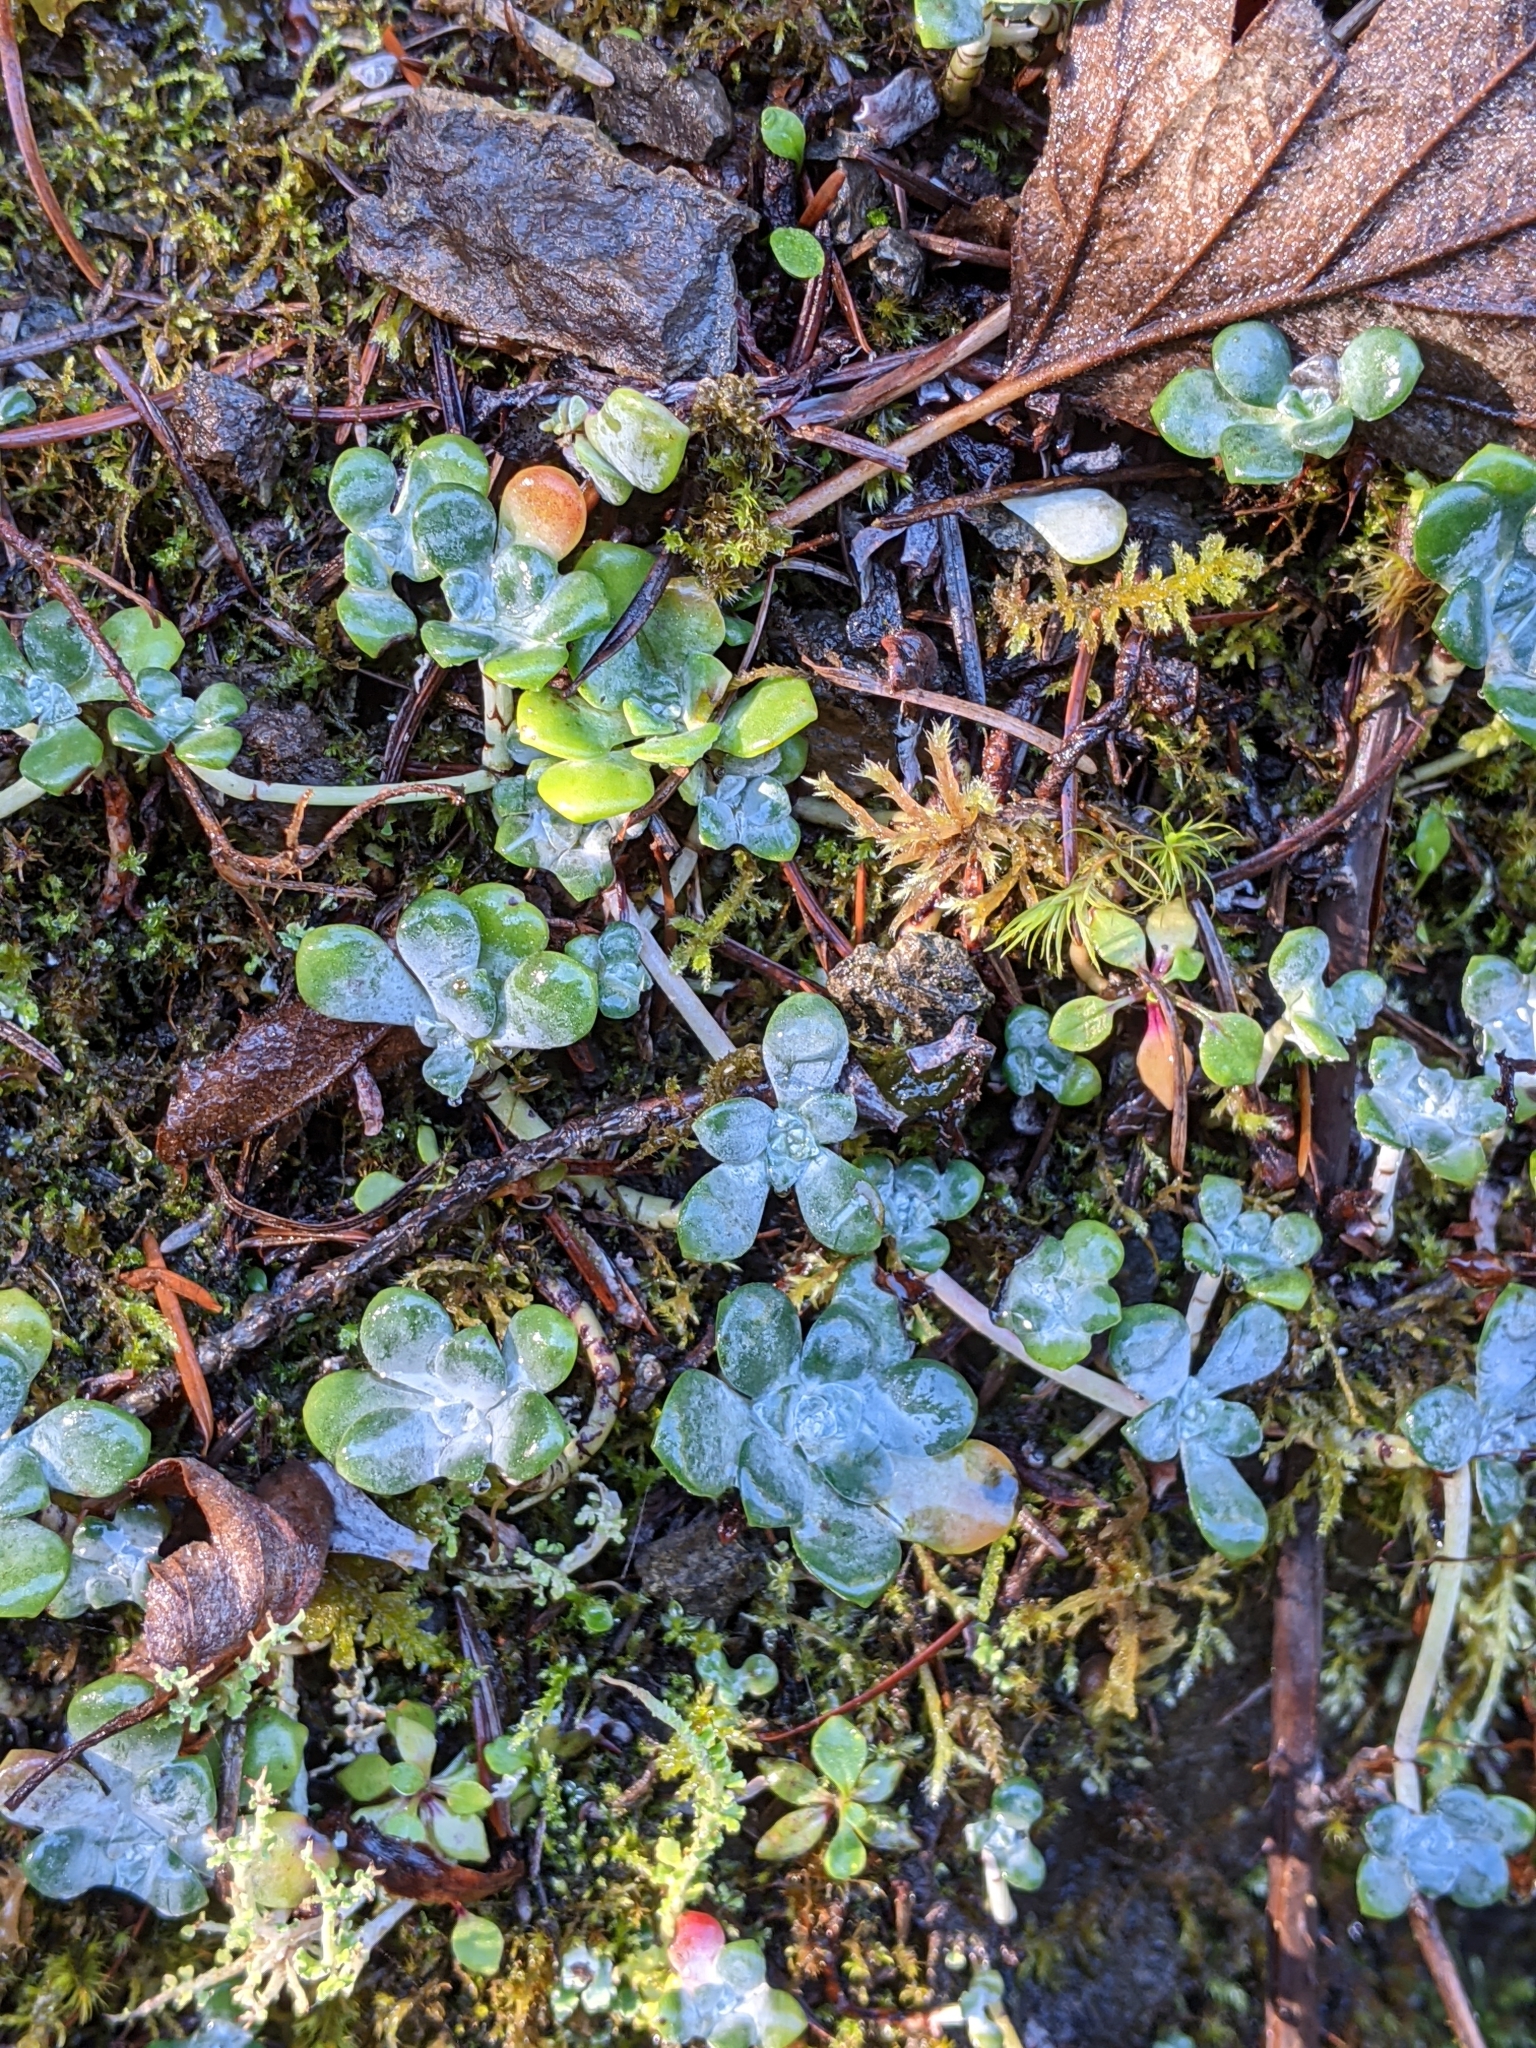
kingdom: Plantae
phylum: Tracheophyta
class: Magnoliopsida
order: Saxifragales
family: Crassulaceae
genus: Sedum
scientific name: Sedum spathulifolium
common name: Colorado stonecrop
